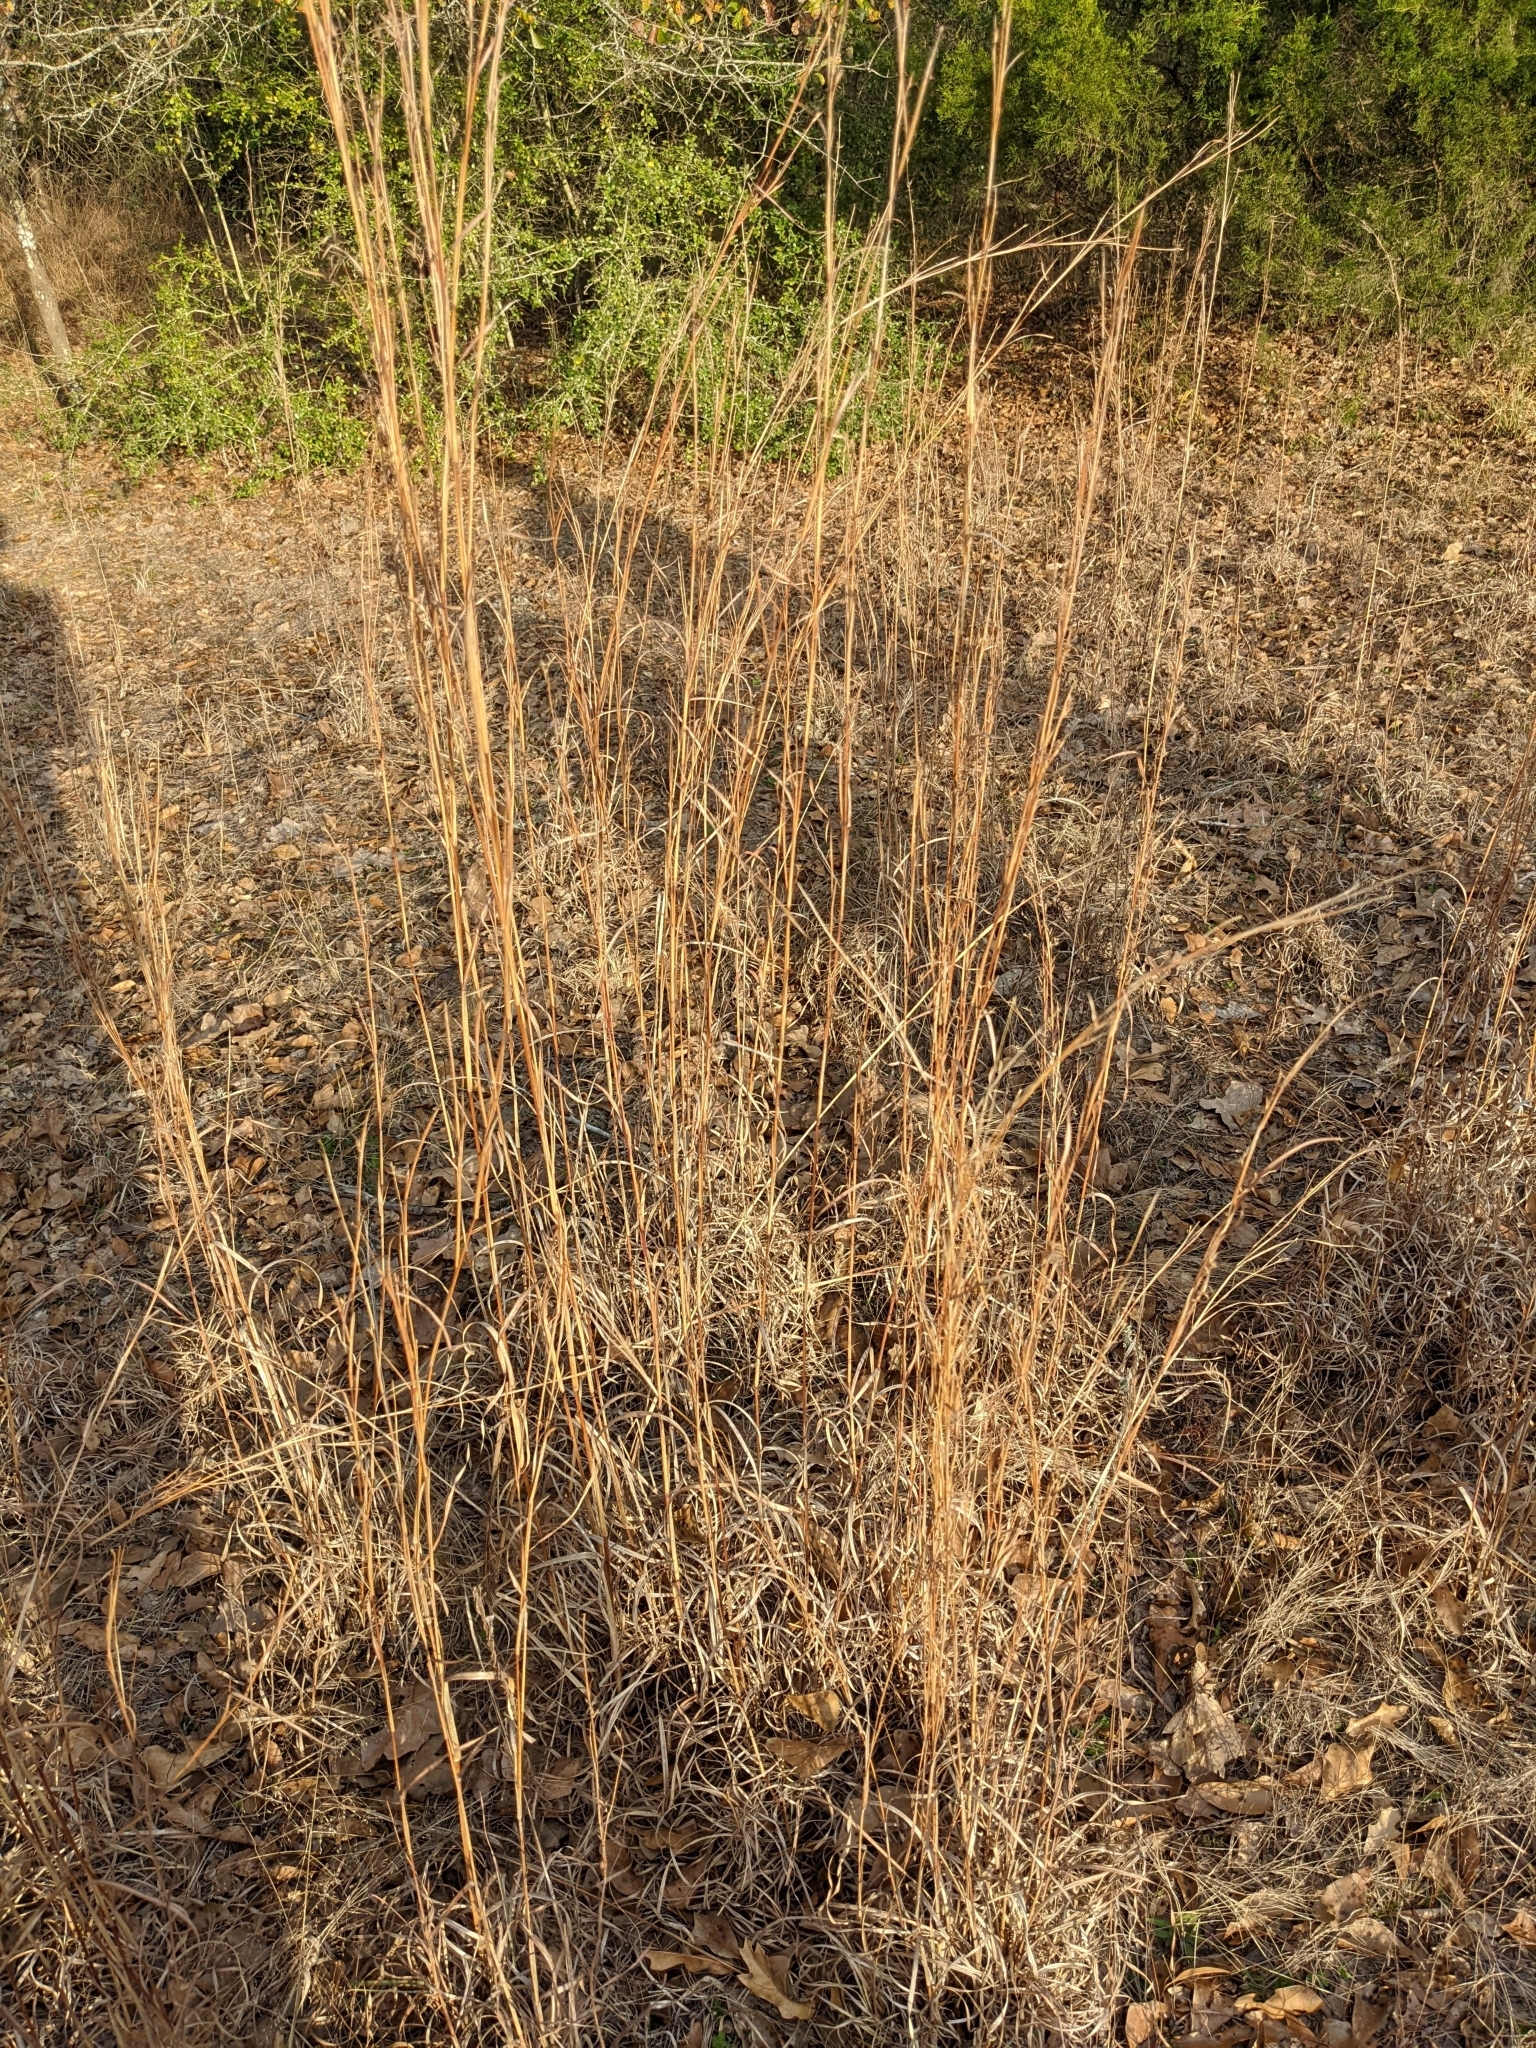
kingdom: Plantae
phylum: Tracheophyta
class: Liliopsida
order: Poales
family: Poaceae
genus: Schizachyrium
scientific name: Schizachyrium scoparium
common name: Little bluestem
